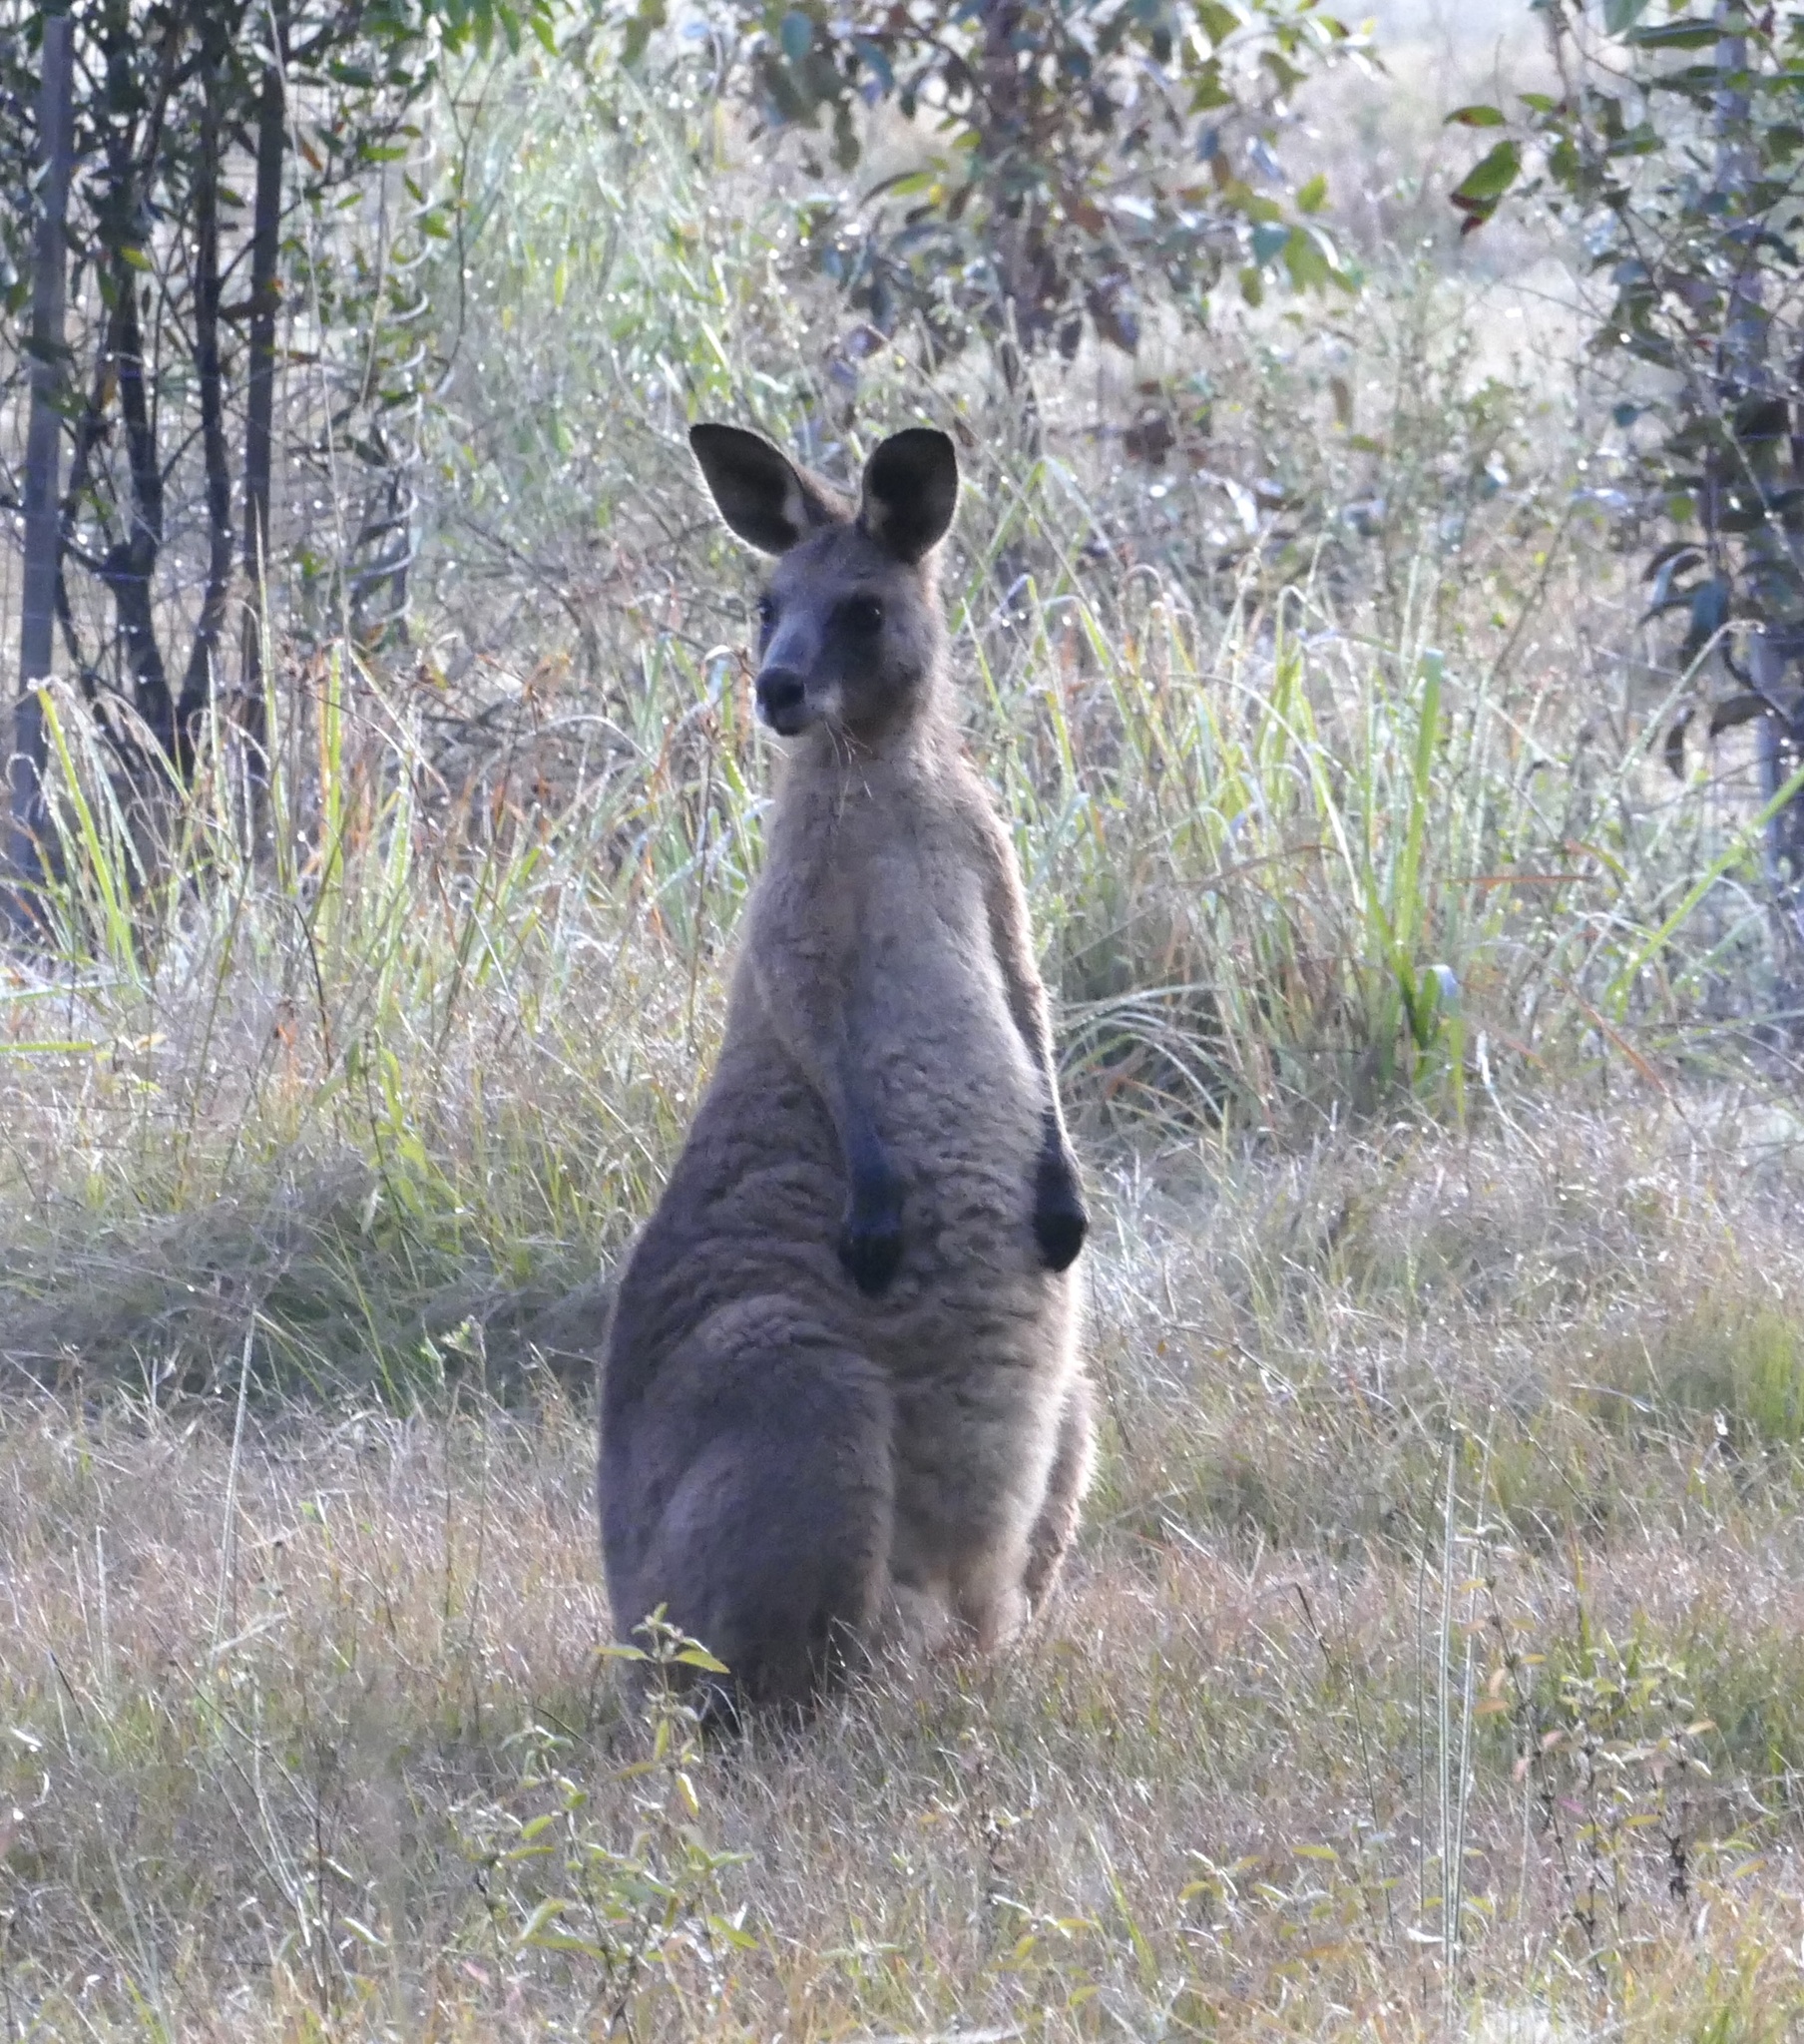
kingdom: Animalia
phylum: Chordata
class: Mammalia
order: Diprotodontia
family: Macropodidae
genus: Macropus
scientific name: Macropus giganteus
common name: Eastern grey kangaroo
